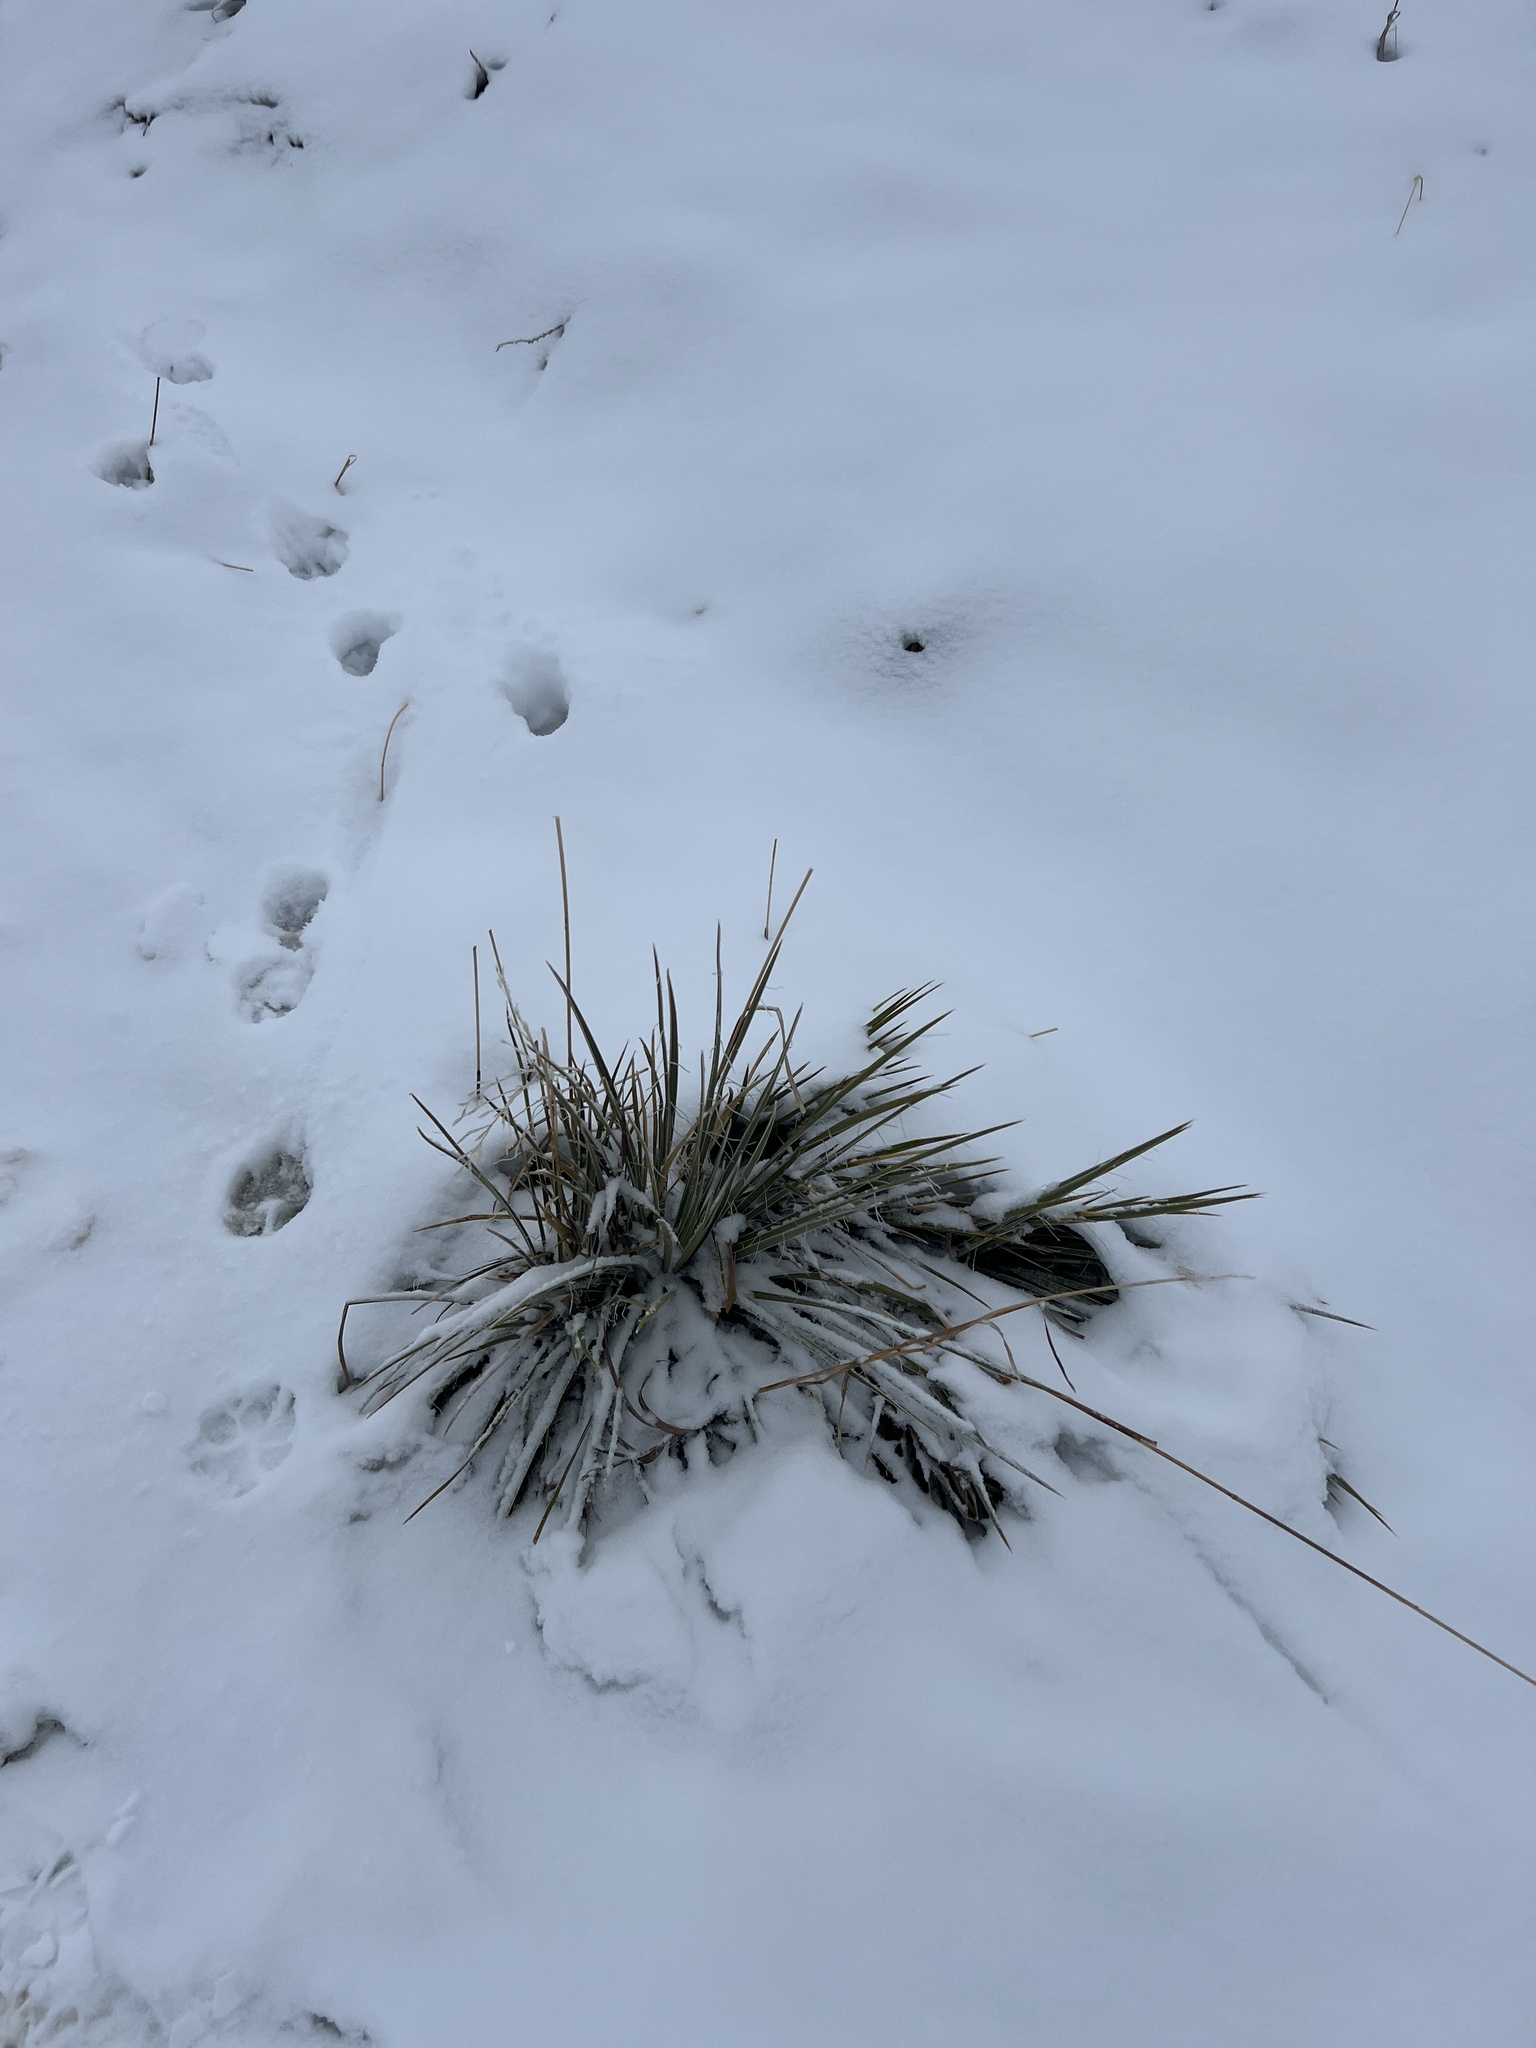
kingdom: Plantae
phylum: Tracheophyta
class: Liliopsida
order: Asparagales
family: Asparagaceae
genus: Yucca
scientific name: Yucca glauca
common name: Great plains yucca
